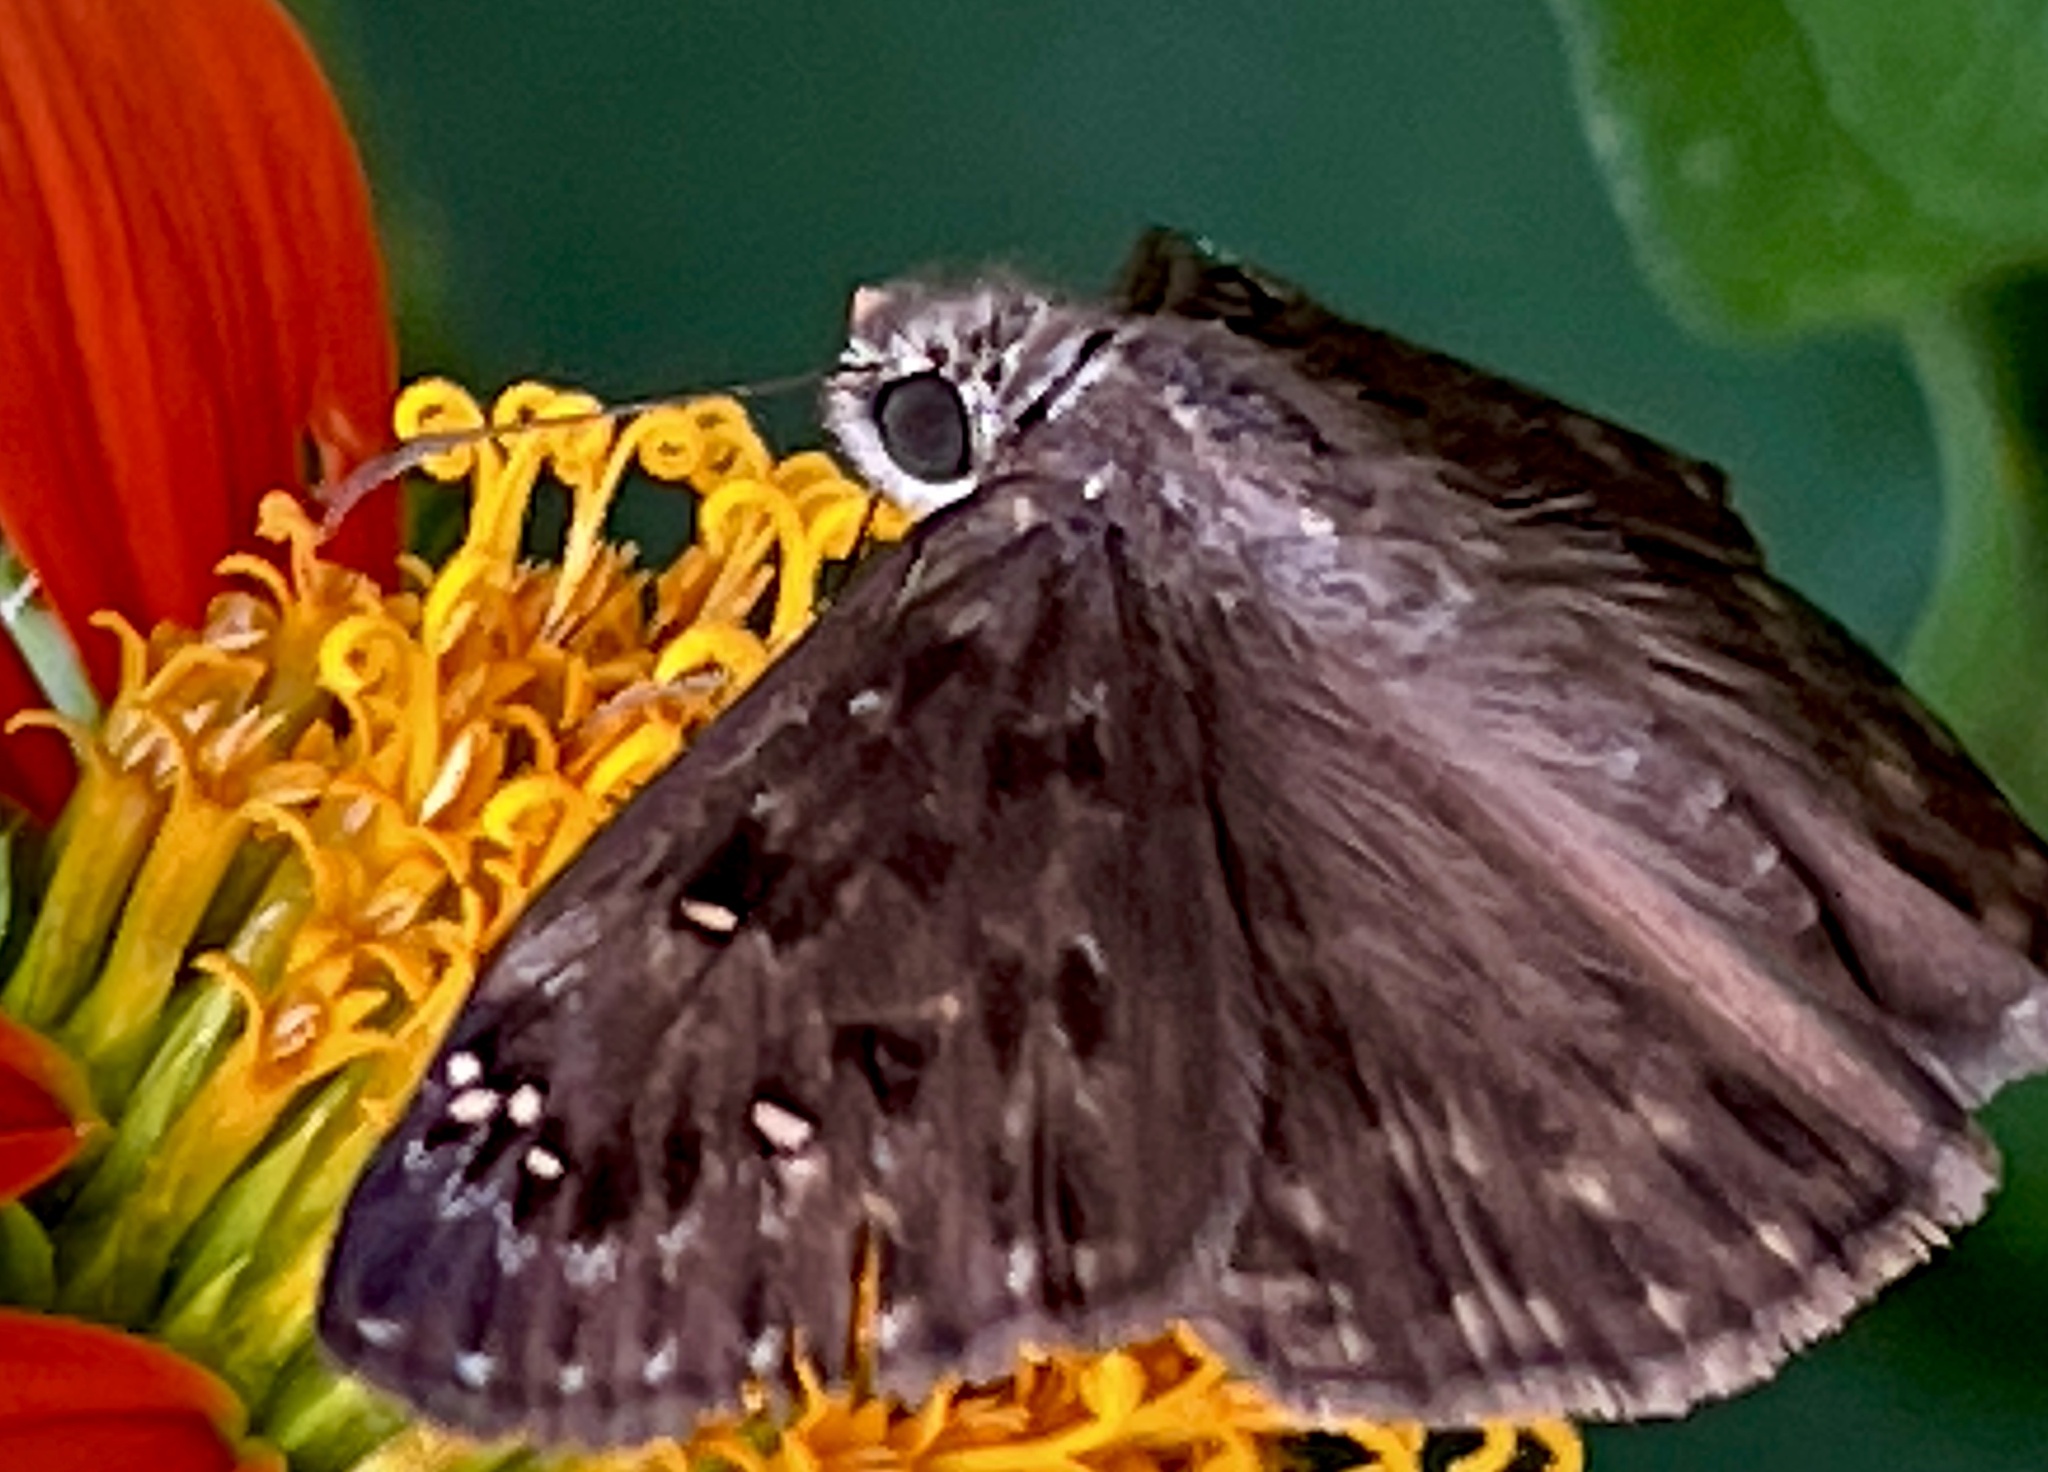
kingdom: Animalia
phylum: Arthropoda
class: Insecta
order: Lepidoptera
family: Hesperiidae
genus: Erynnis
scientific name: Erynnis horatius
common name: Horace's duskywing
